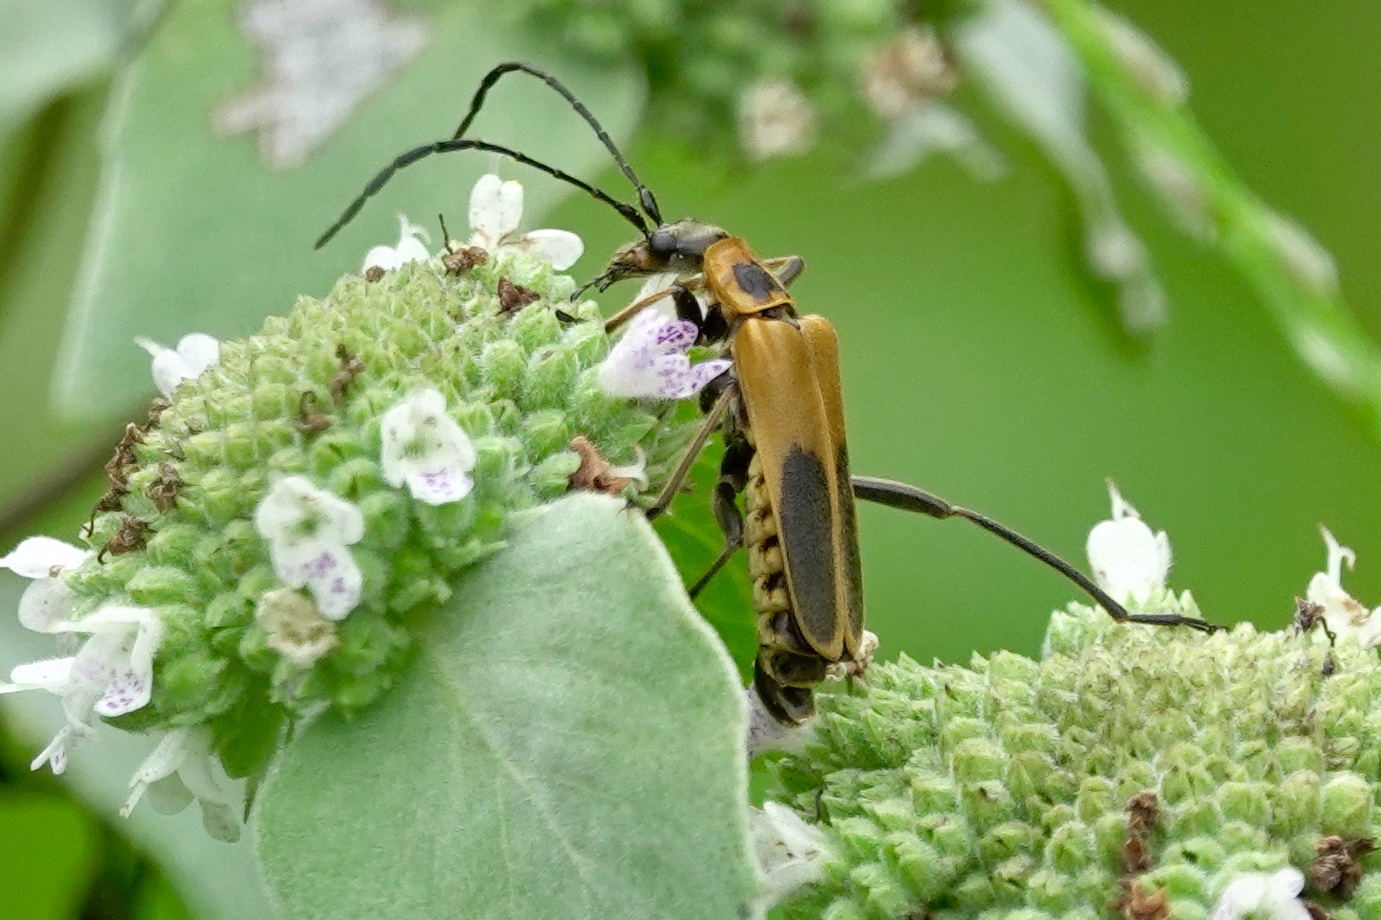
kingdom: Animalia
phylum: Arthropoda
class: Insecta
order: Coleoptera
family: Cantharidae
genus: Chauliognathus
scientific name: Chauliognathus pensylvanicus
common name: Goldenrod soldier beetle
